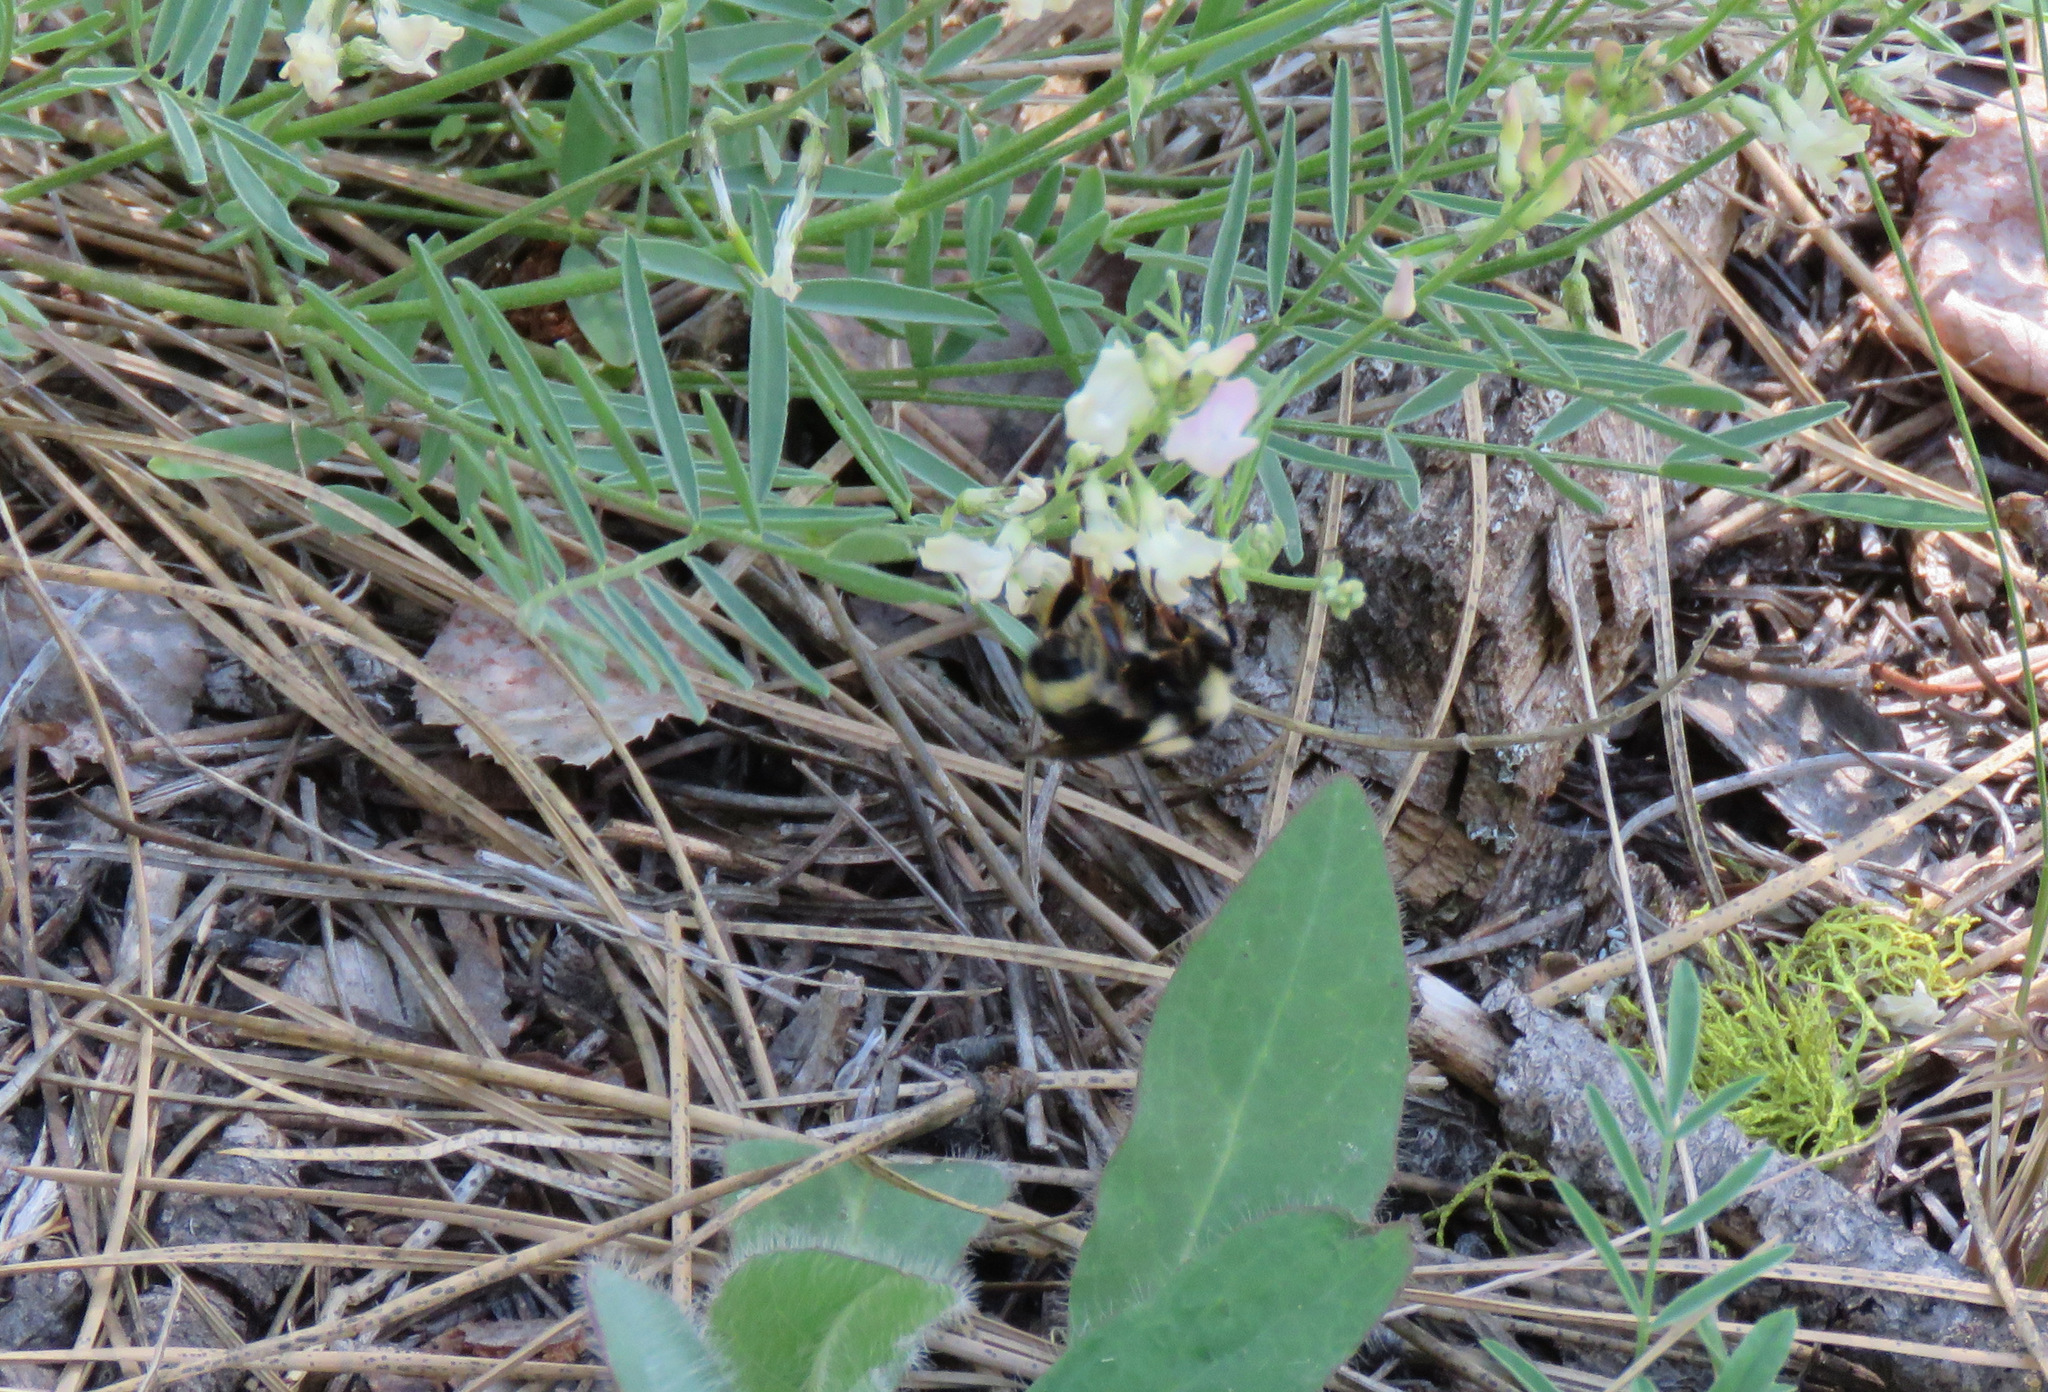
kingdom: Animalia
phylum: Arthropoda
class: Insecta
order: Hymenoptera
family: Apidae
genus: Bombus
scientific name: Bombus vancouverensis
